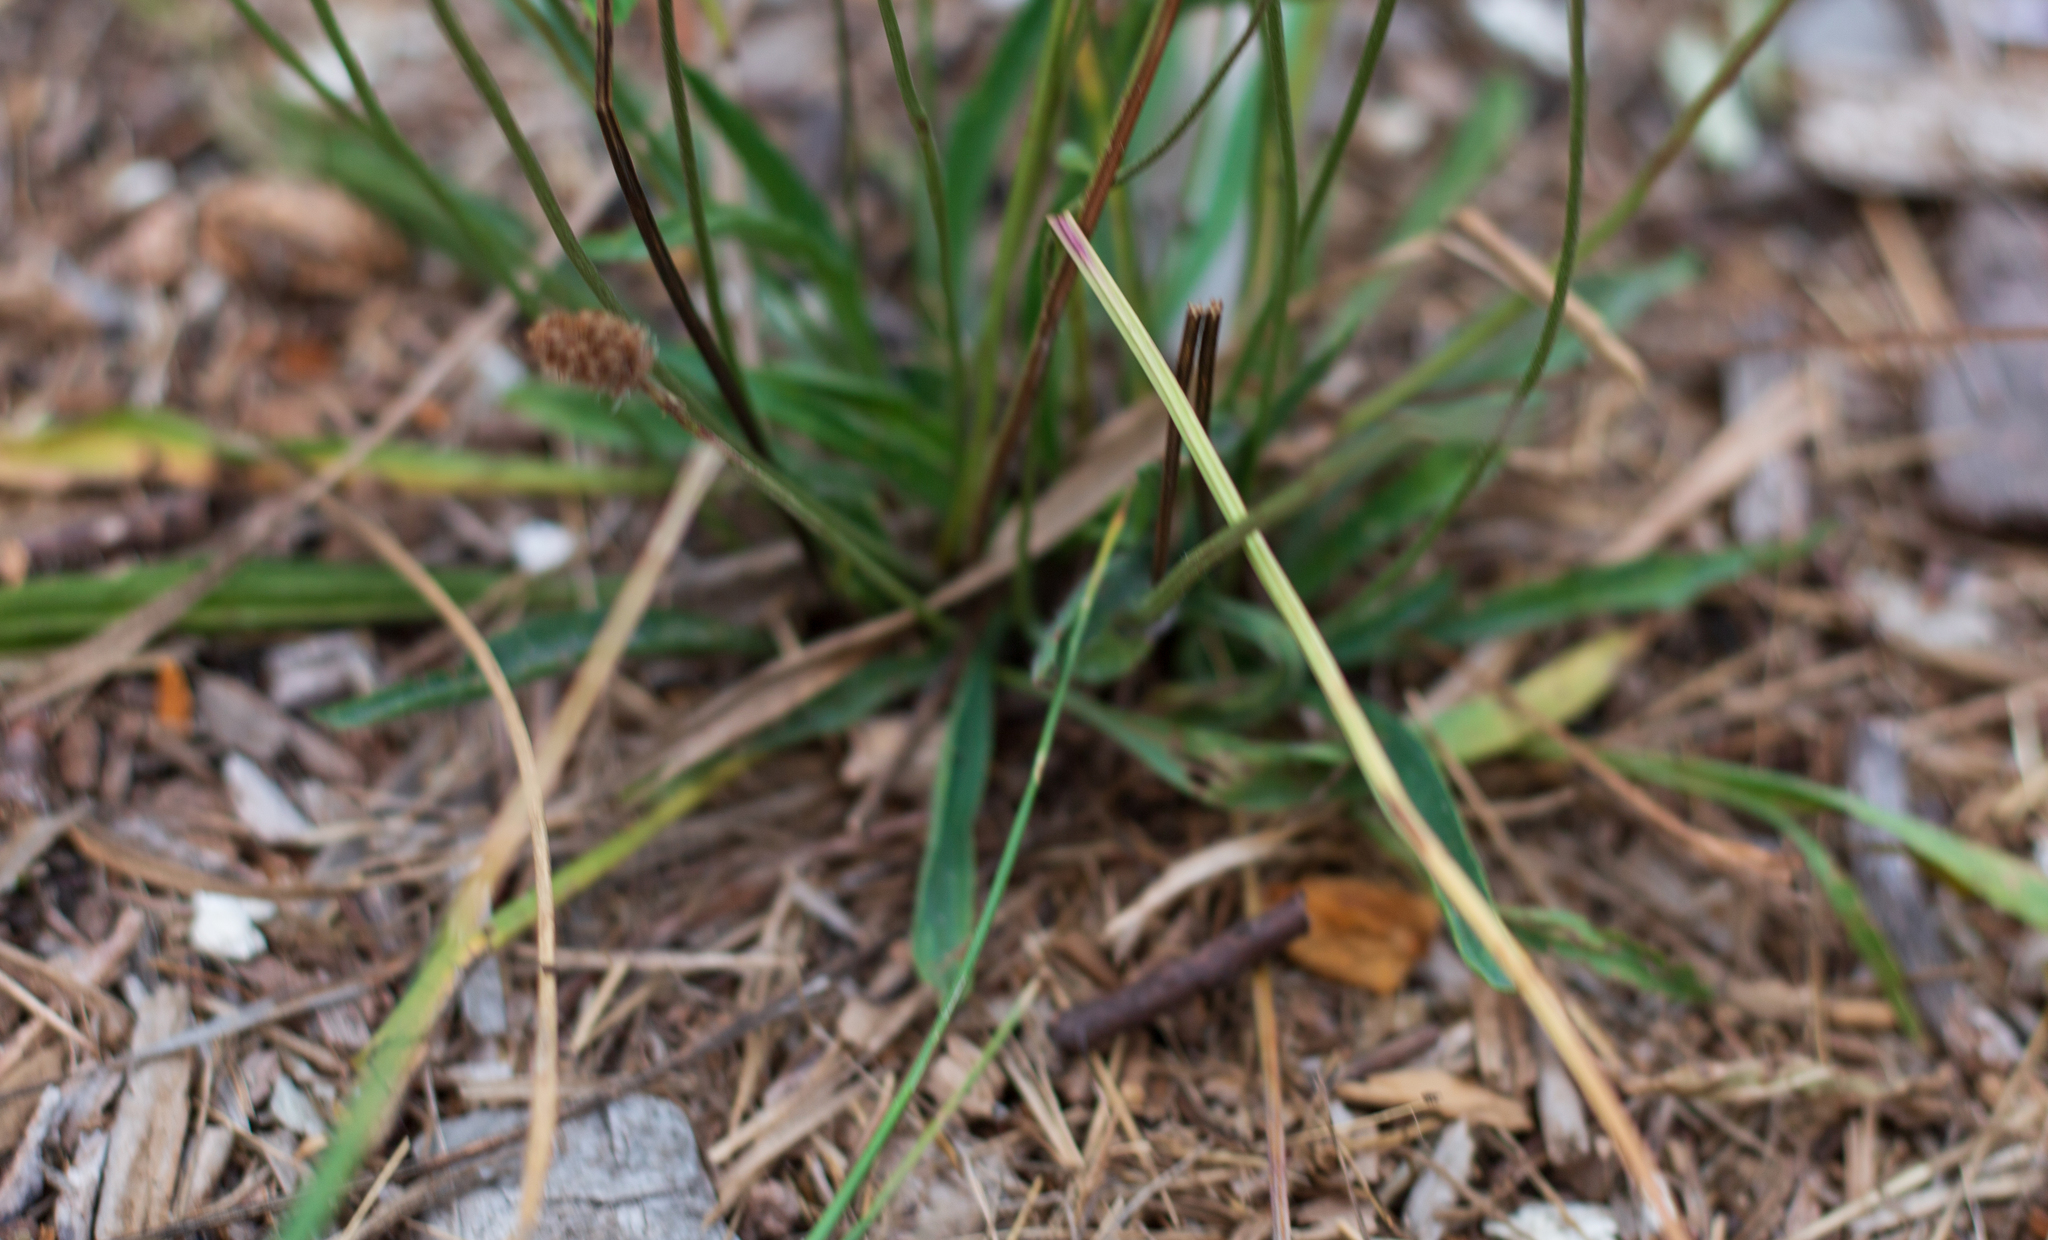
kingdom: Plantae
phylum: Tracheophyta
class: Magnoliopsida
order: Lamiales
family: Plantaginaceae
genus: Plantago
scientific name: Plantago lanceolata
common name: Ribwort plantain
